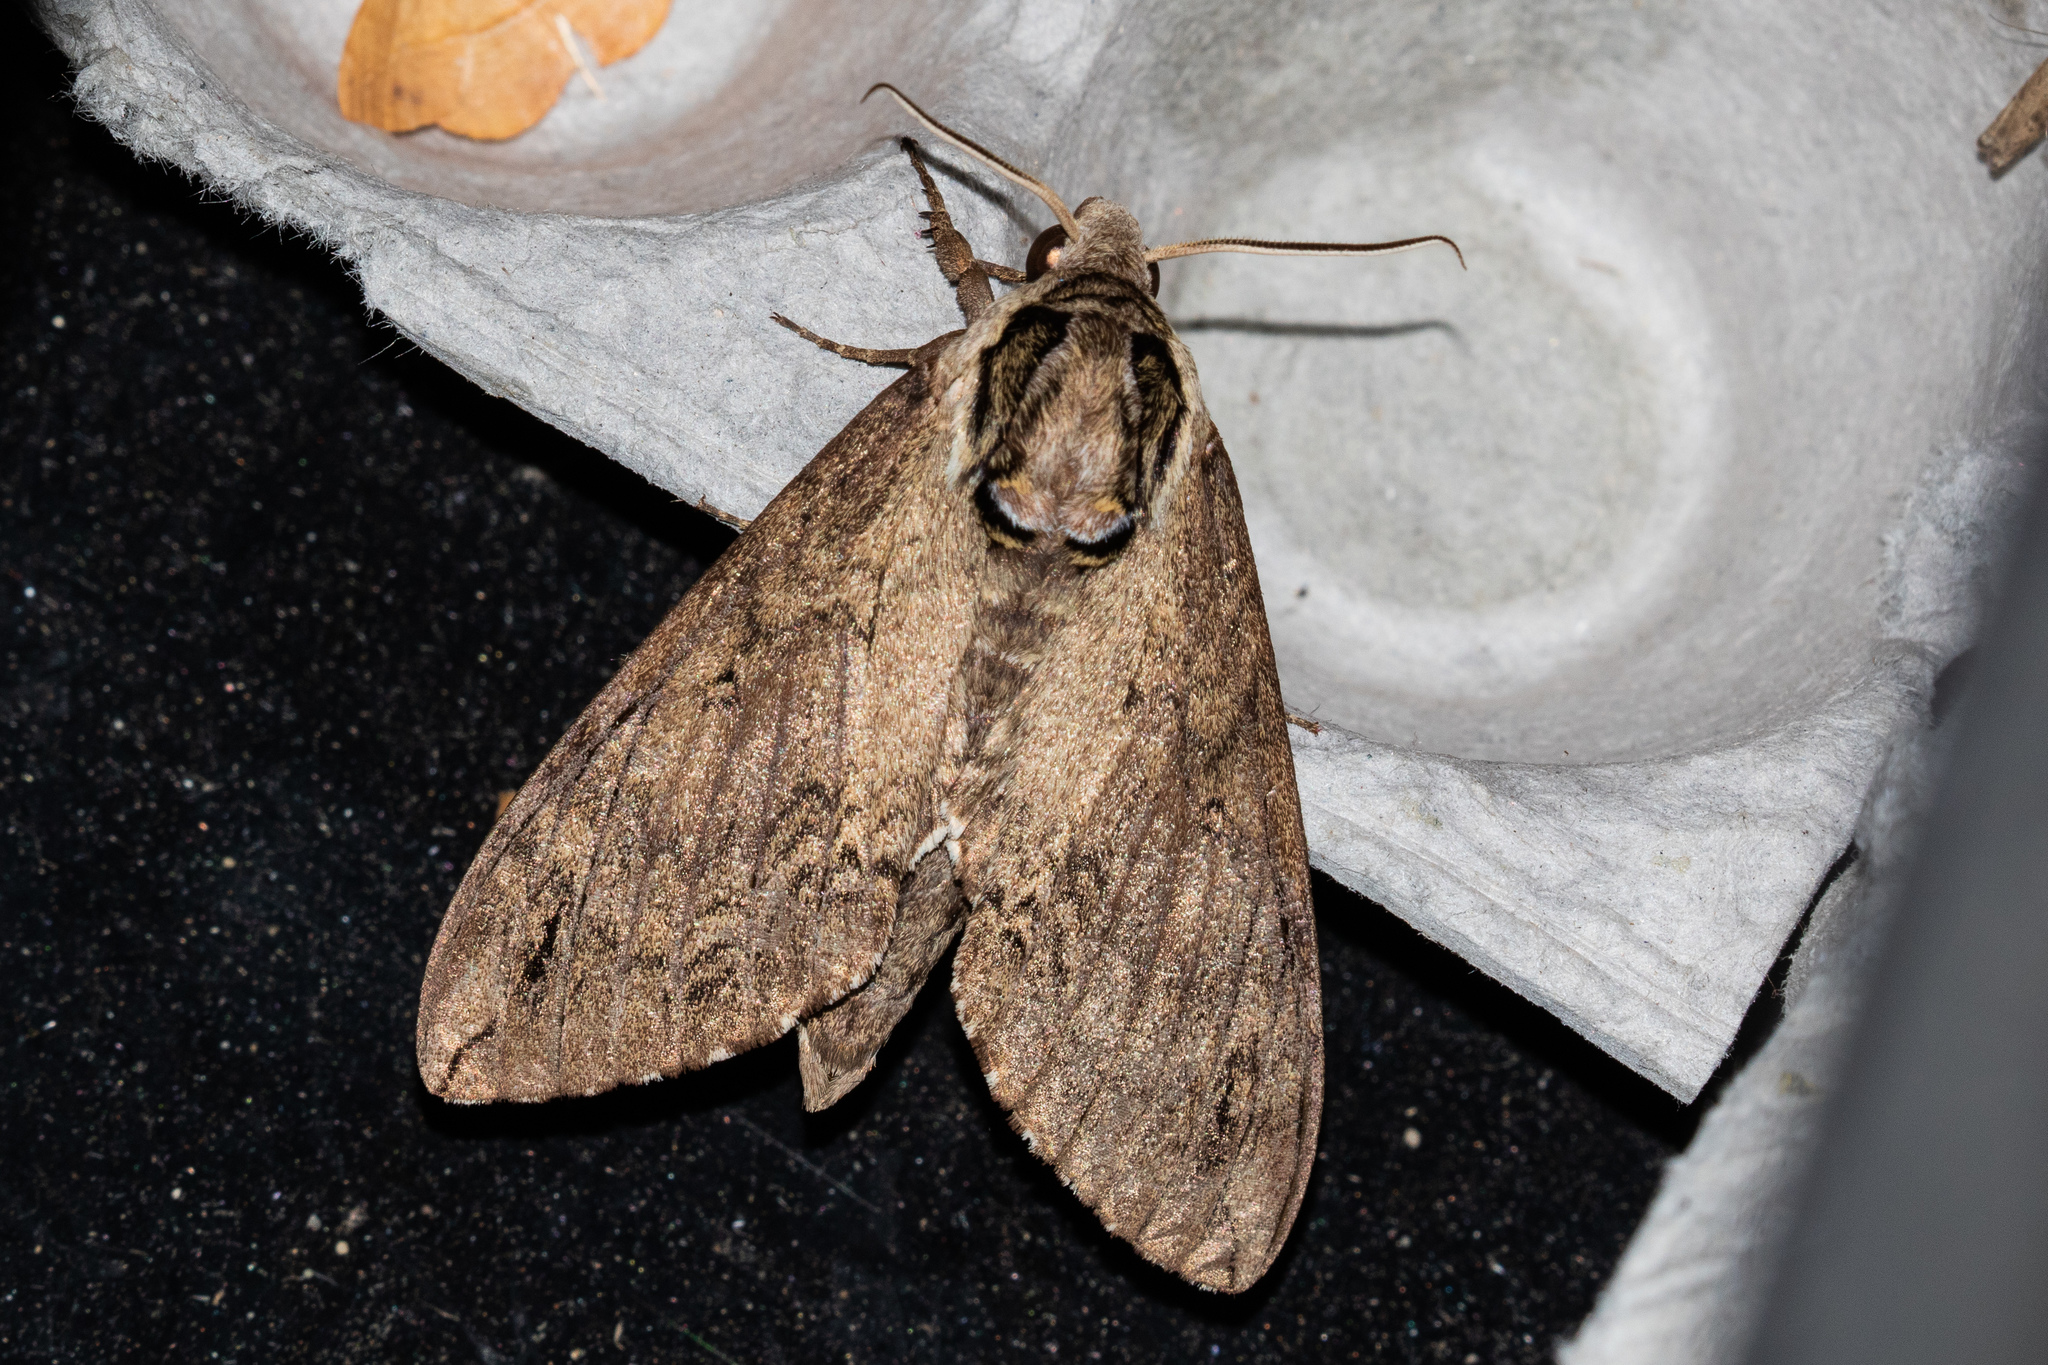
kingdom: Animalia
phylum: Arthropoda
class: Insecta
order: Lepidoptera
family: Sphingidae
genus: Ceratomia
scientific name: Ceratomia catalpae
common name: Catalpa hornworm
